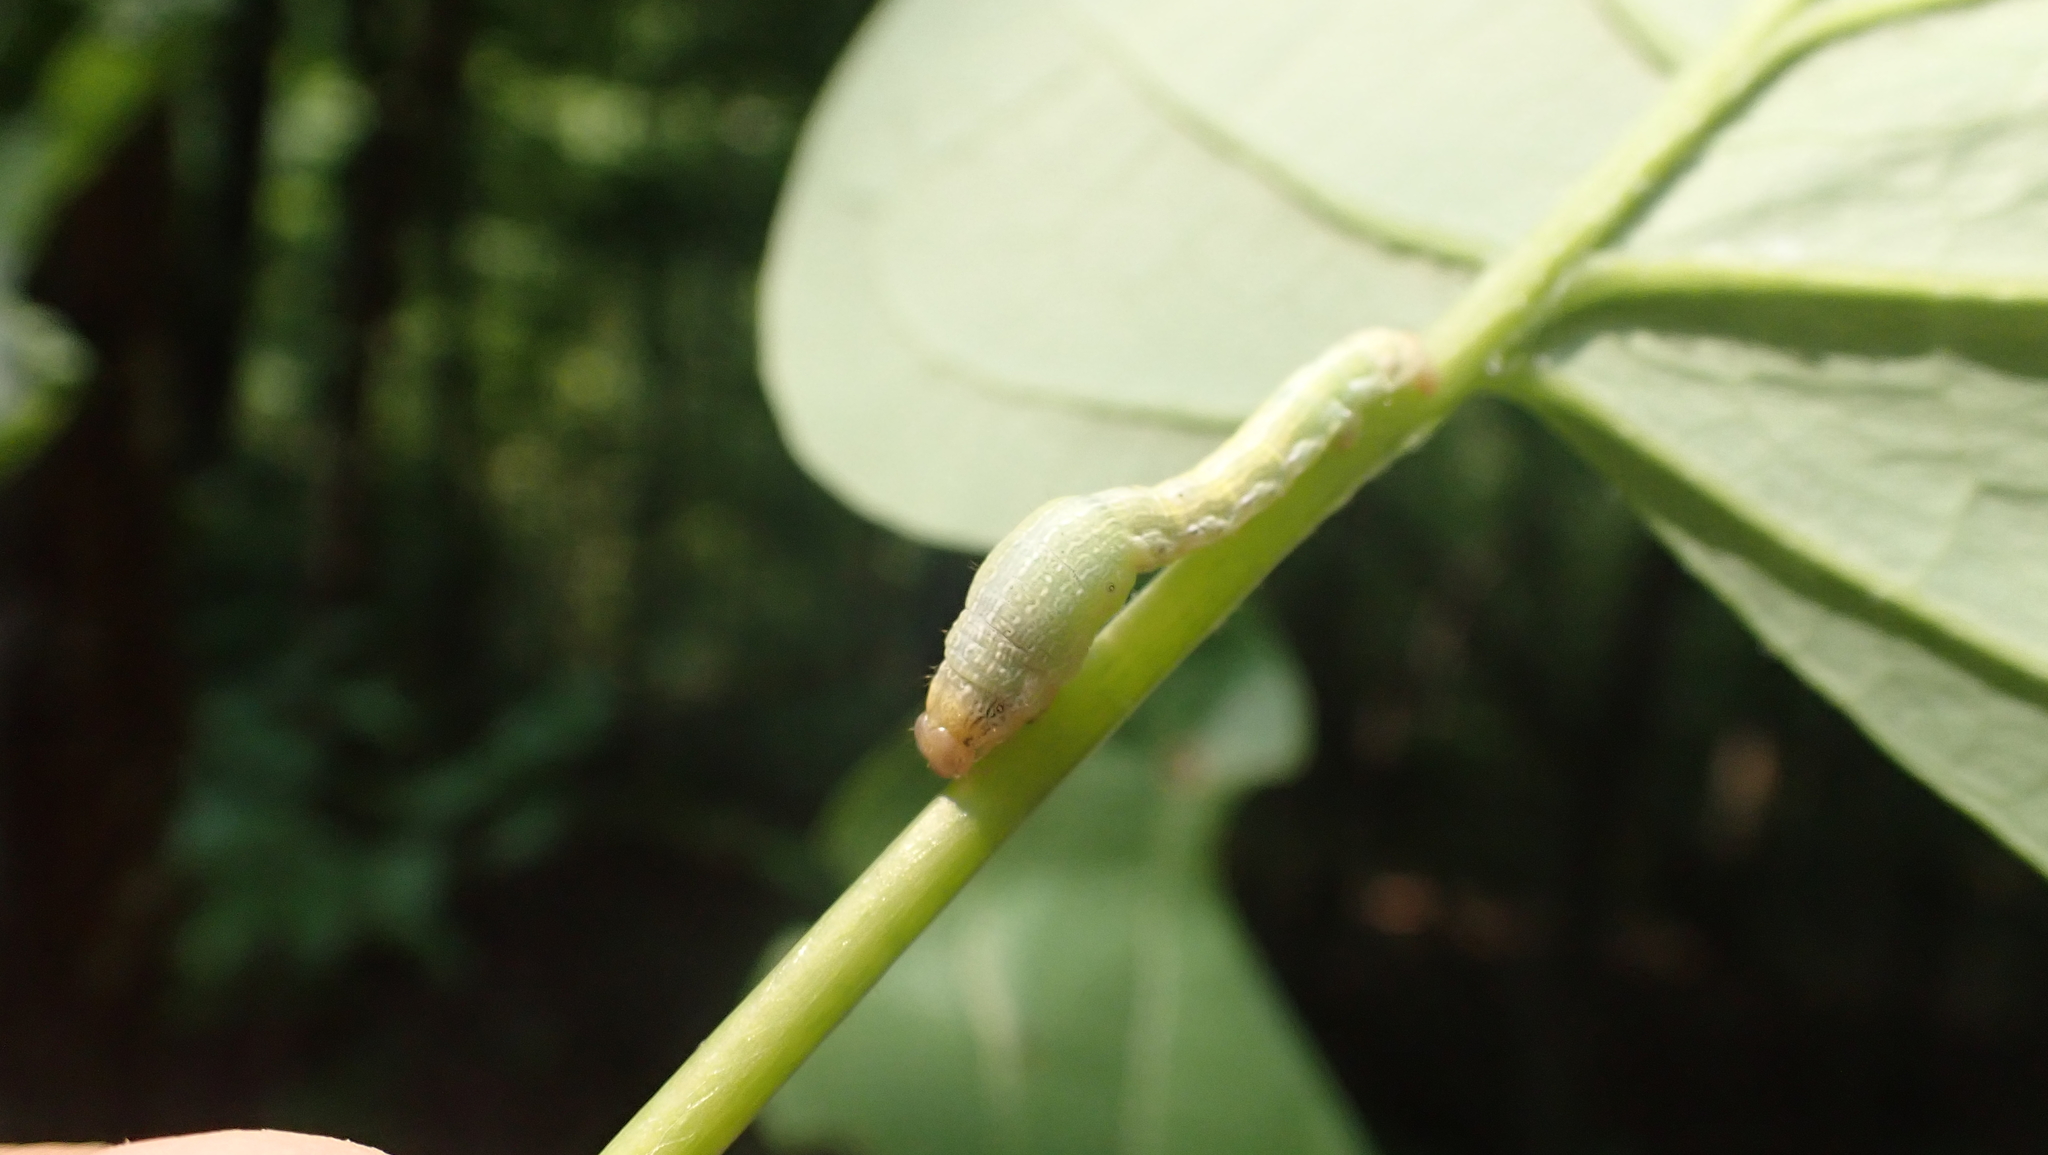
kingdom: Animalia
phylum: Arthropoda
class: Insecta
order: Lepidoptera
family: Geometridae
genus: Epimecis
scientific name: Epimecis hortaria
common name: Tulip-tree beauty
